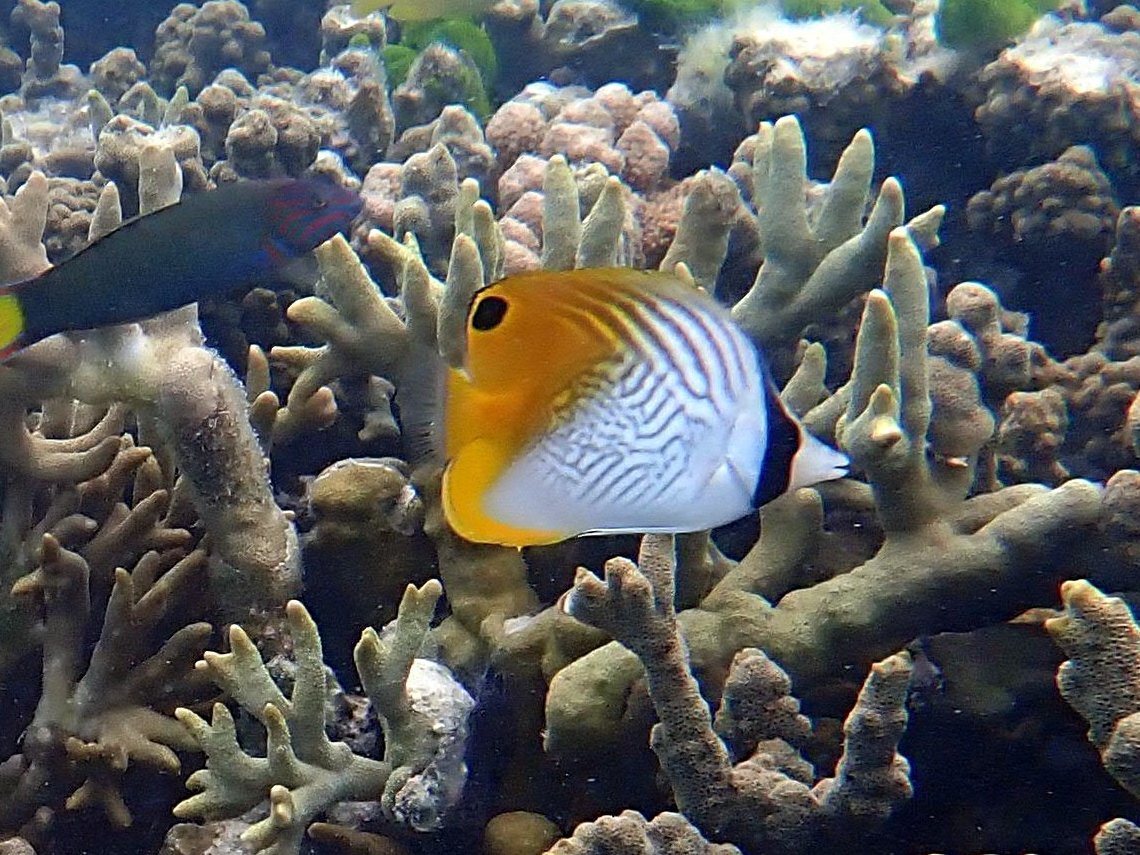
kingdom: Animalia
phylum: Chordata
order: Perciformes
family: Chaetodontidae
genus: Chaetodon
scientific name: Chaetodon auriga
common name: Threadfin butterflyfish
